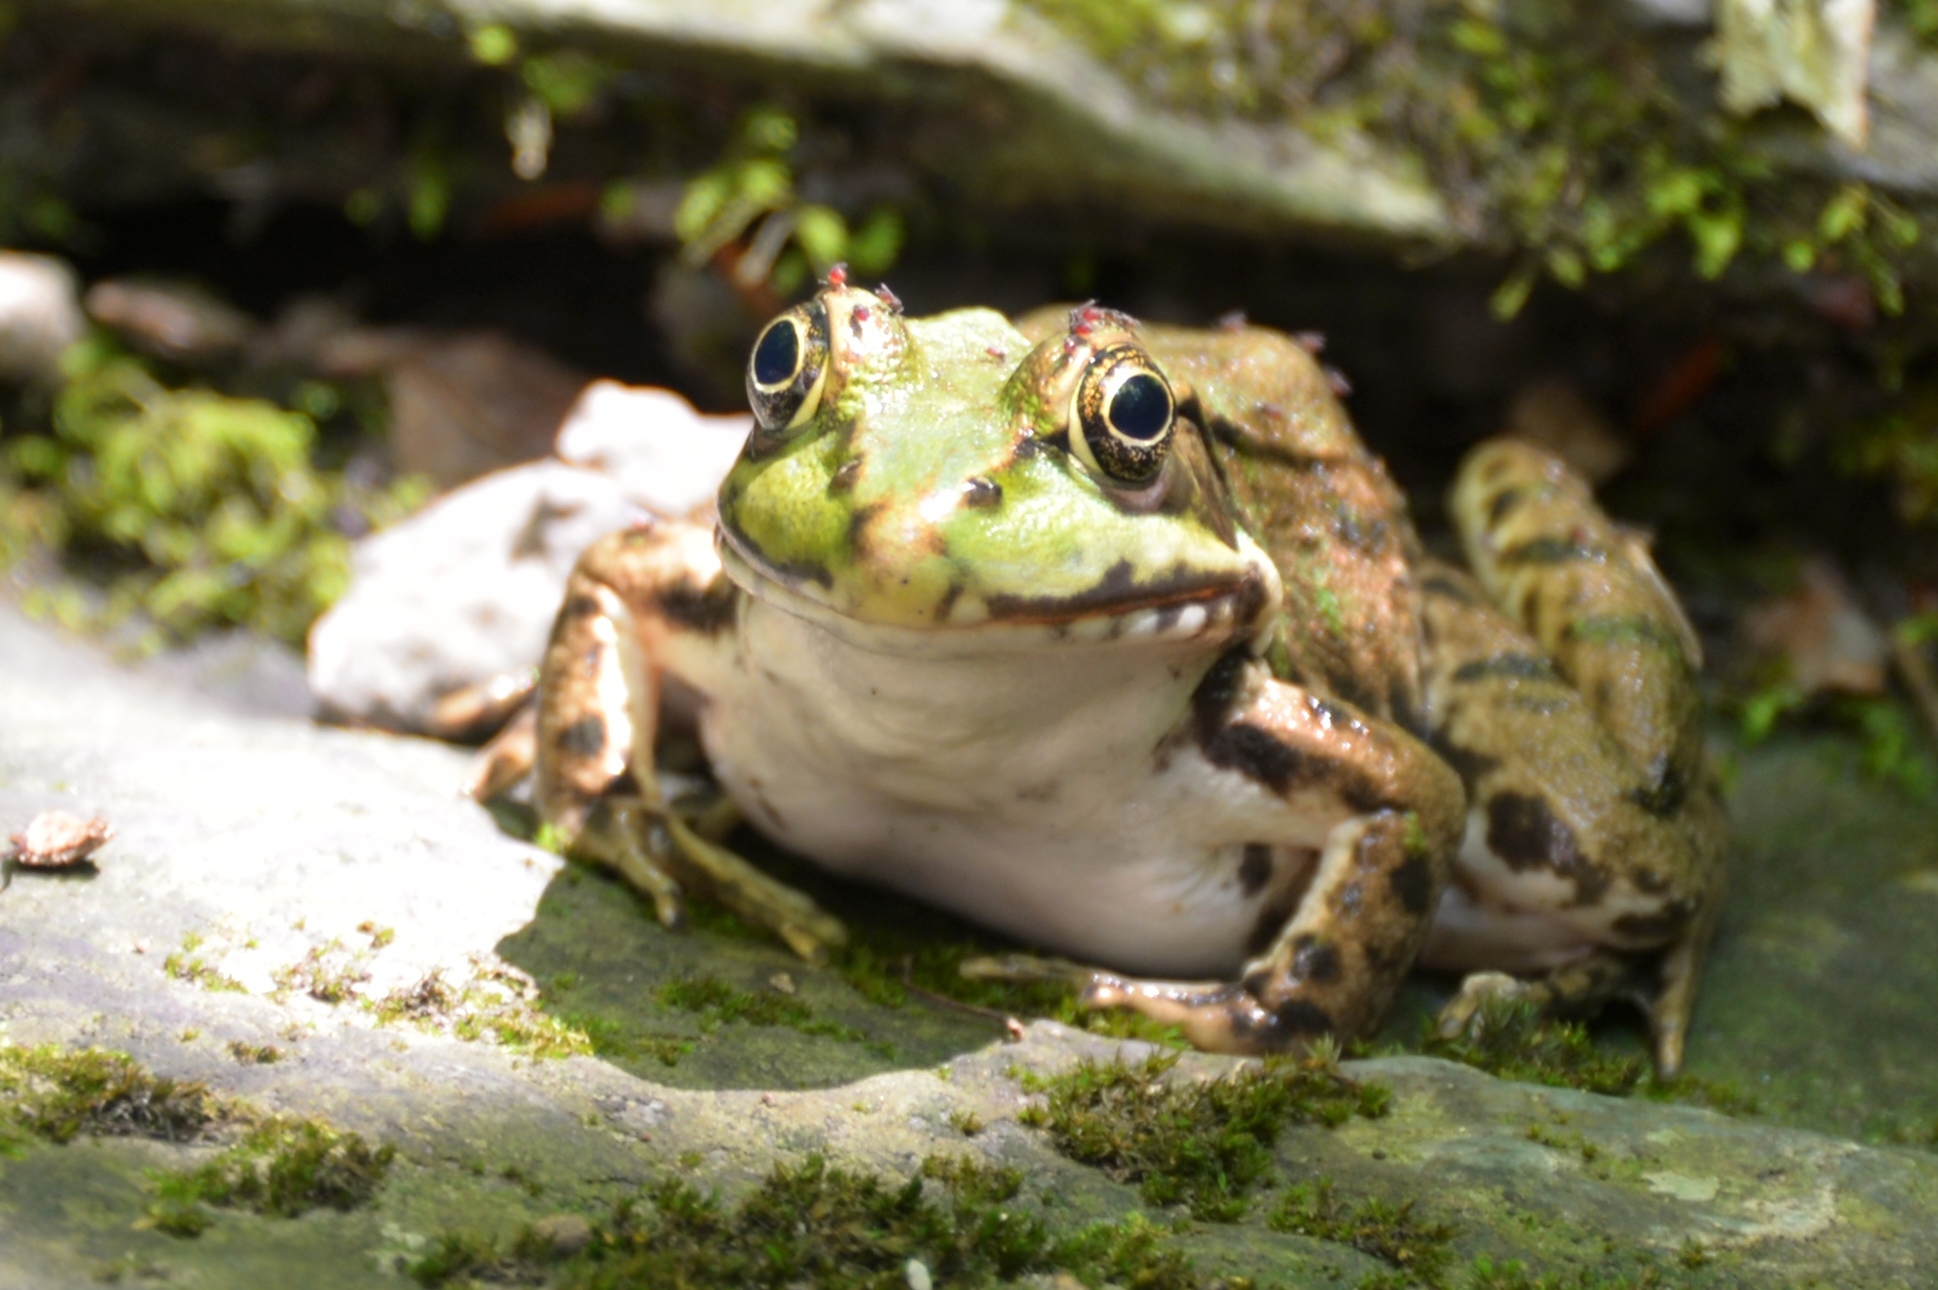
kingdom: Animalia
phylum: Chordata
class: Amphibia
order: Anura
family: Ranidae
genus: Lithobates
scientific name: Lithobates clamitans
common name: Green frog
